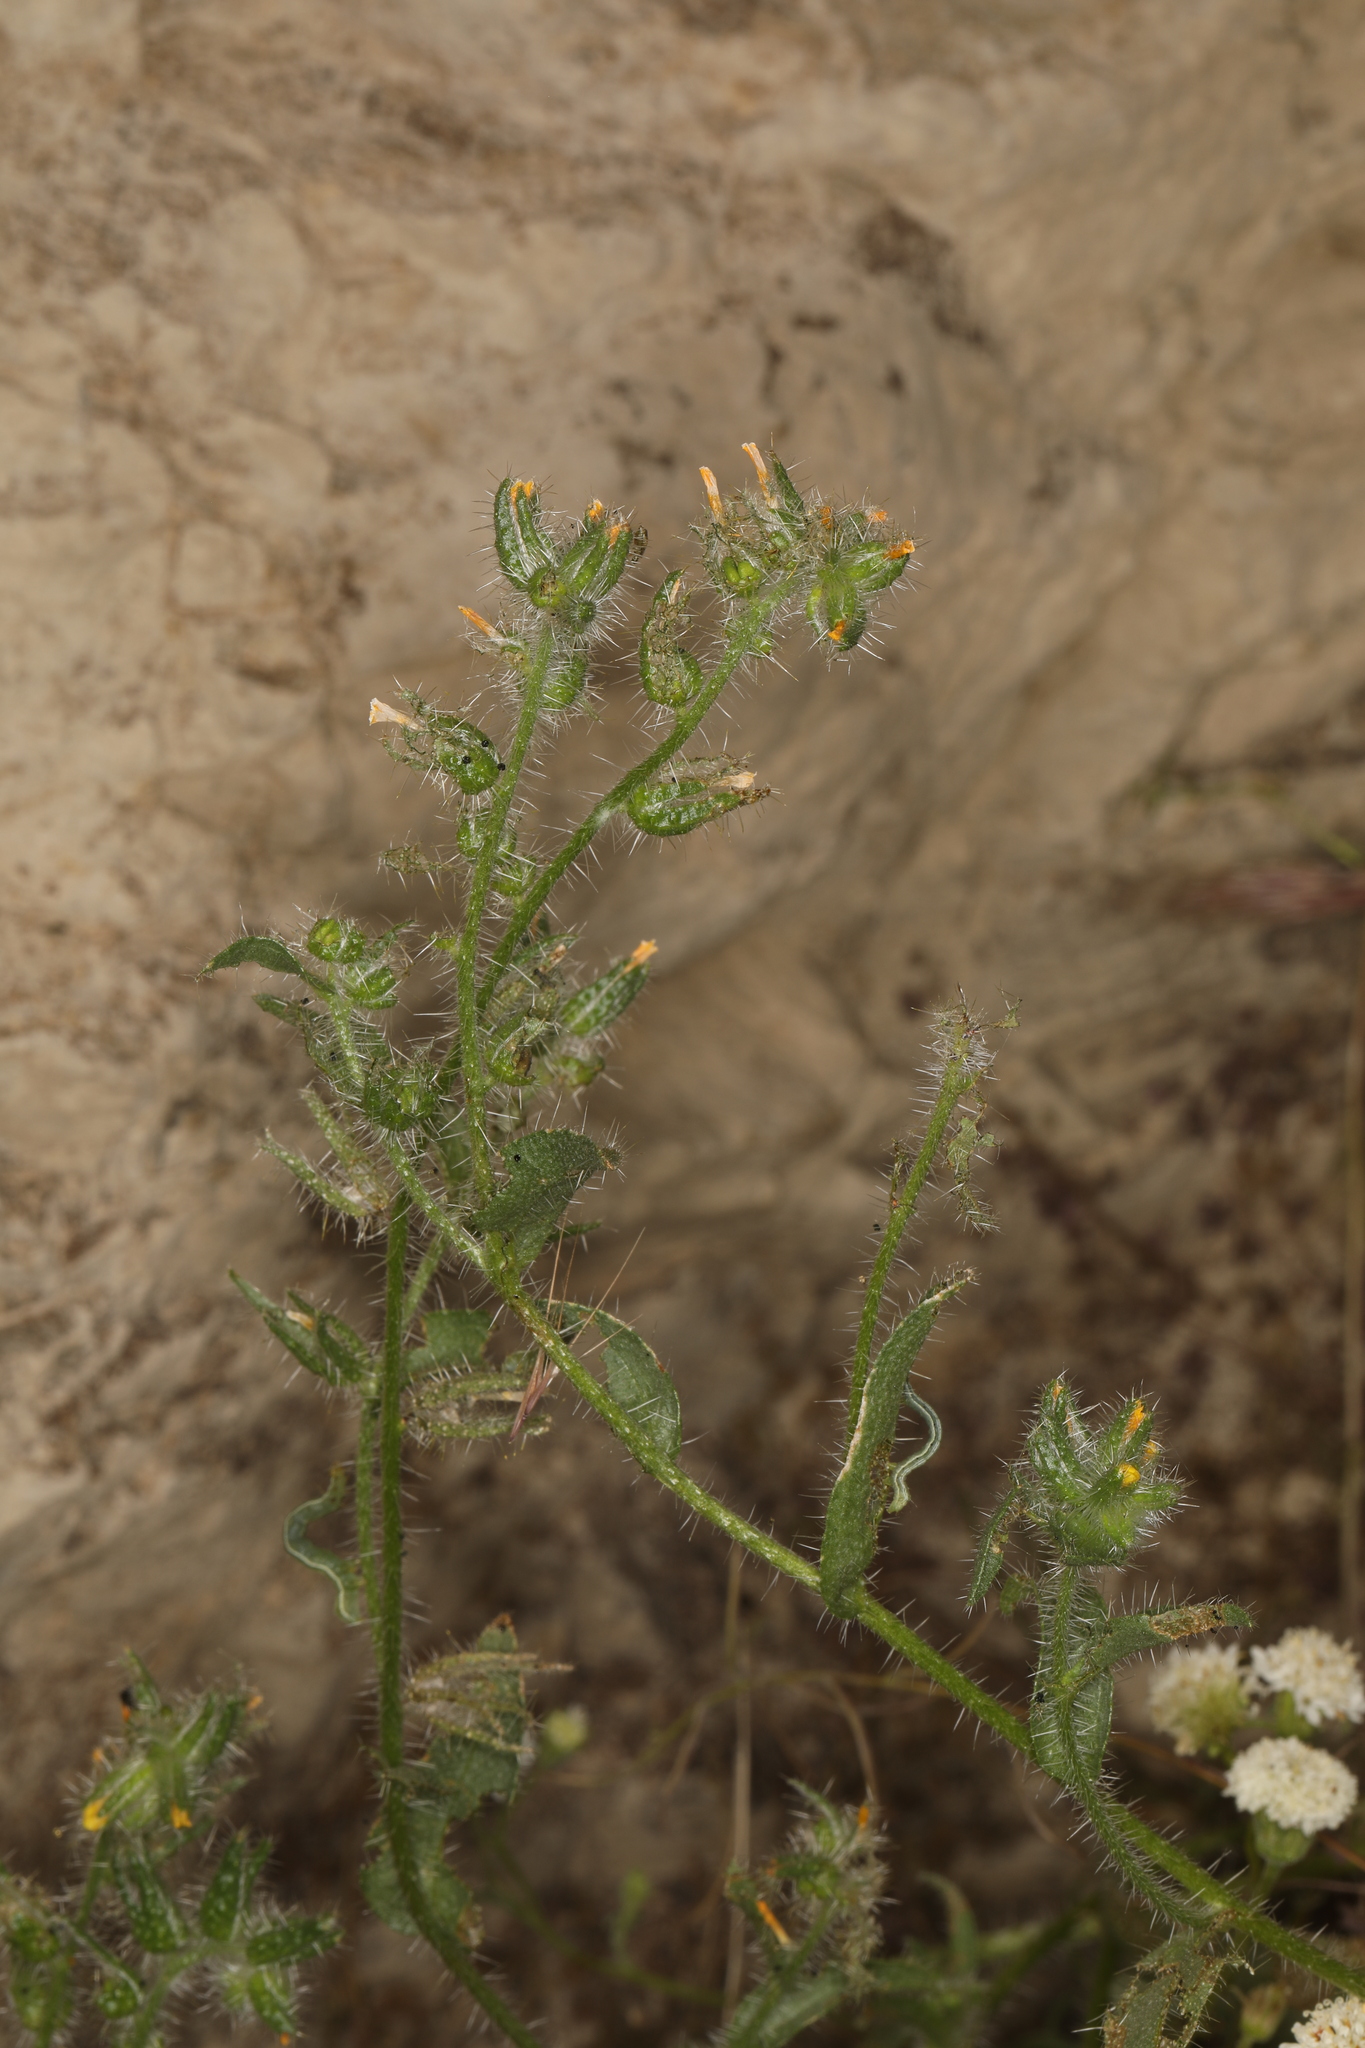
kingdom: Plantae
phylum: Tracheophyta
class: Magnoliopsida
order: Boraginales
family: Boraginaceae
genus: Amsinckia
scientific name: Amsinckia tessellata
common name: Tessellate fiddleneck
